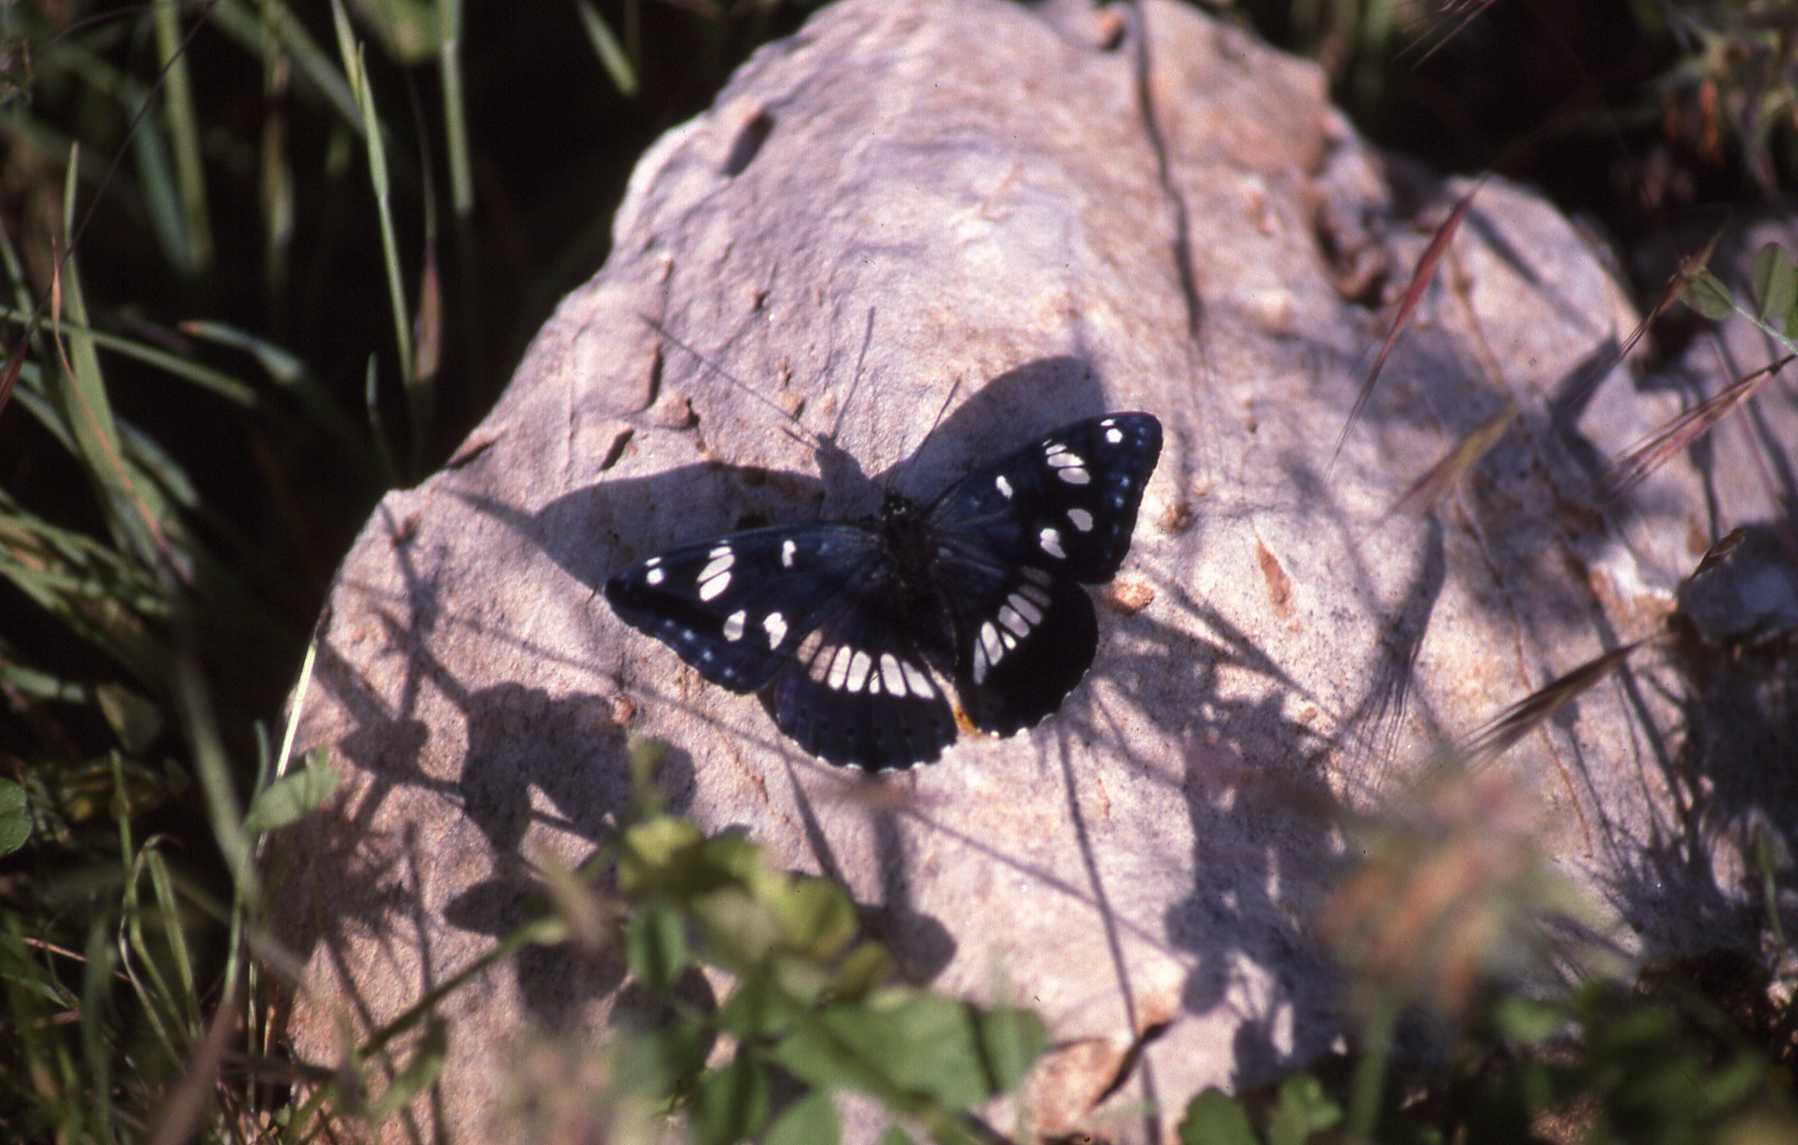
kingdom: Animalia
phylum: Arthropoda
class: Insecta
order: Lepidoptera
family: Nymphalidae
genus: Limenitis
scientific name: Limenitis reducta
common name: Southern white admiral
